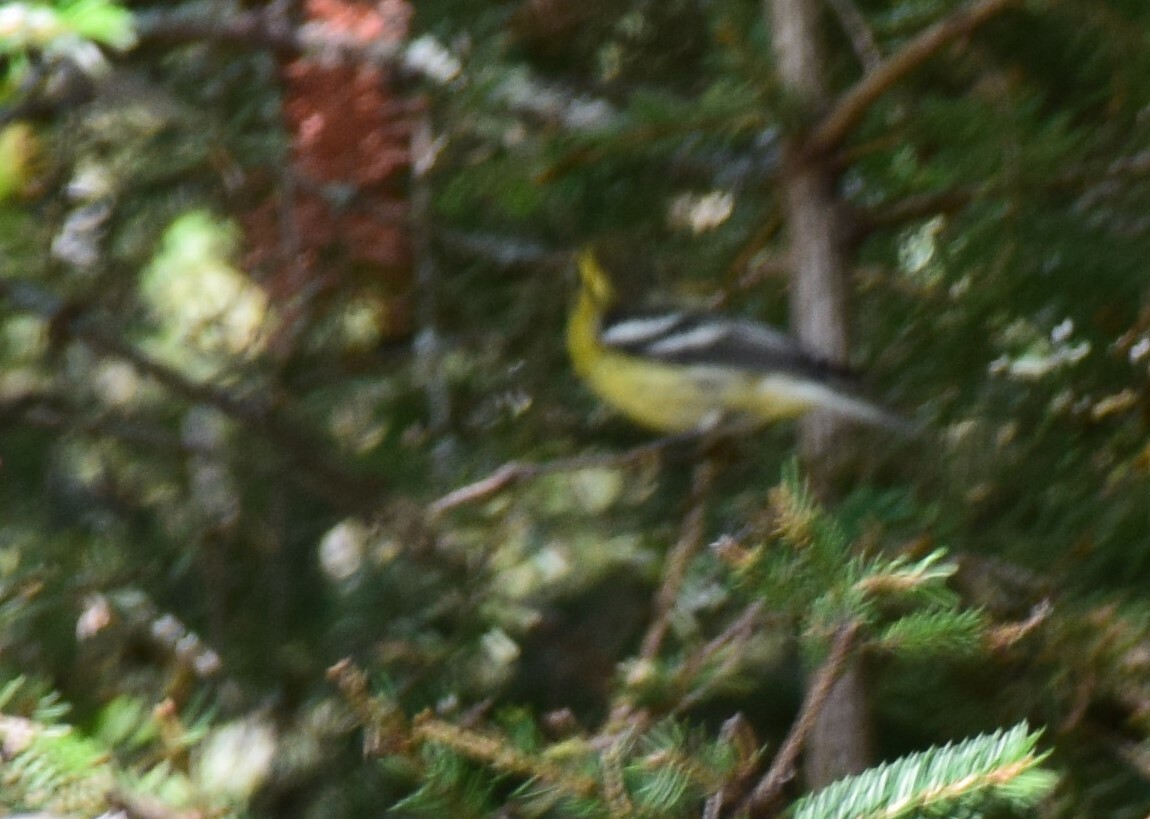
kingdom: Animalia
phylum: Chordata
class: Aves
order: Passeriformes
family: Parulidae
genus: Setophaga
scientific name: Setophaga fusca
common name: Blackburnian warbler
